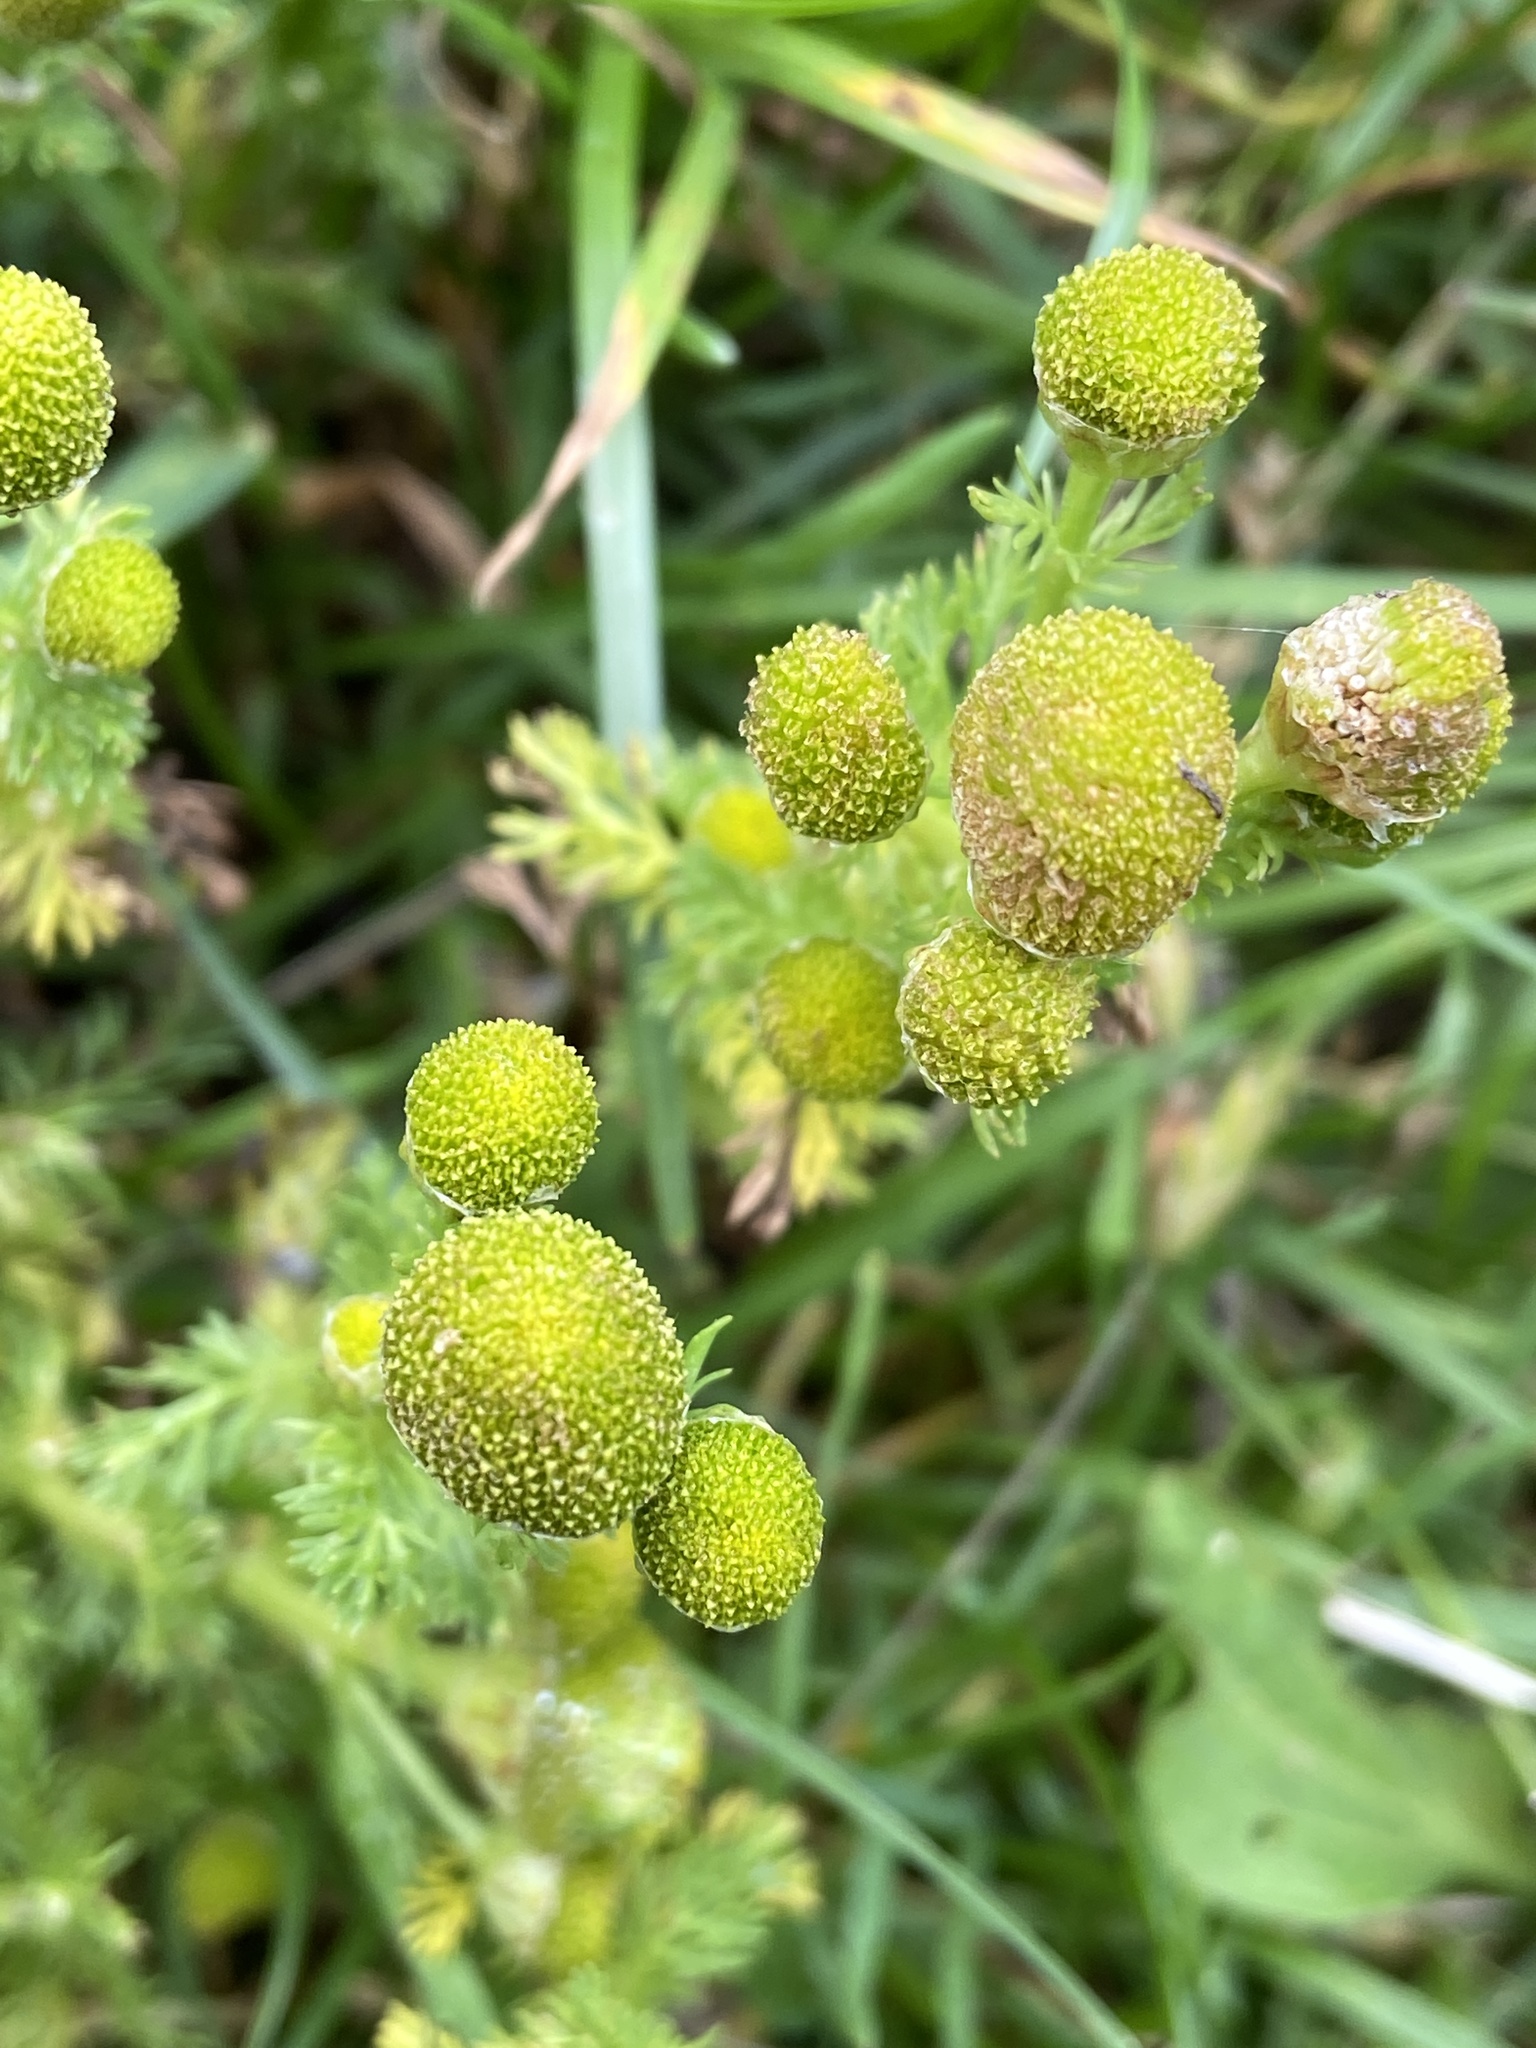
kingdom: Plantae
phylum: Tracheophyta
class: Magnoliopsida
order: Asterales
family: Asteraceae
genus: Matricaria
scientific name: Matricaria discoidea
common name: Disc mayweed
